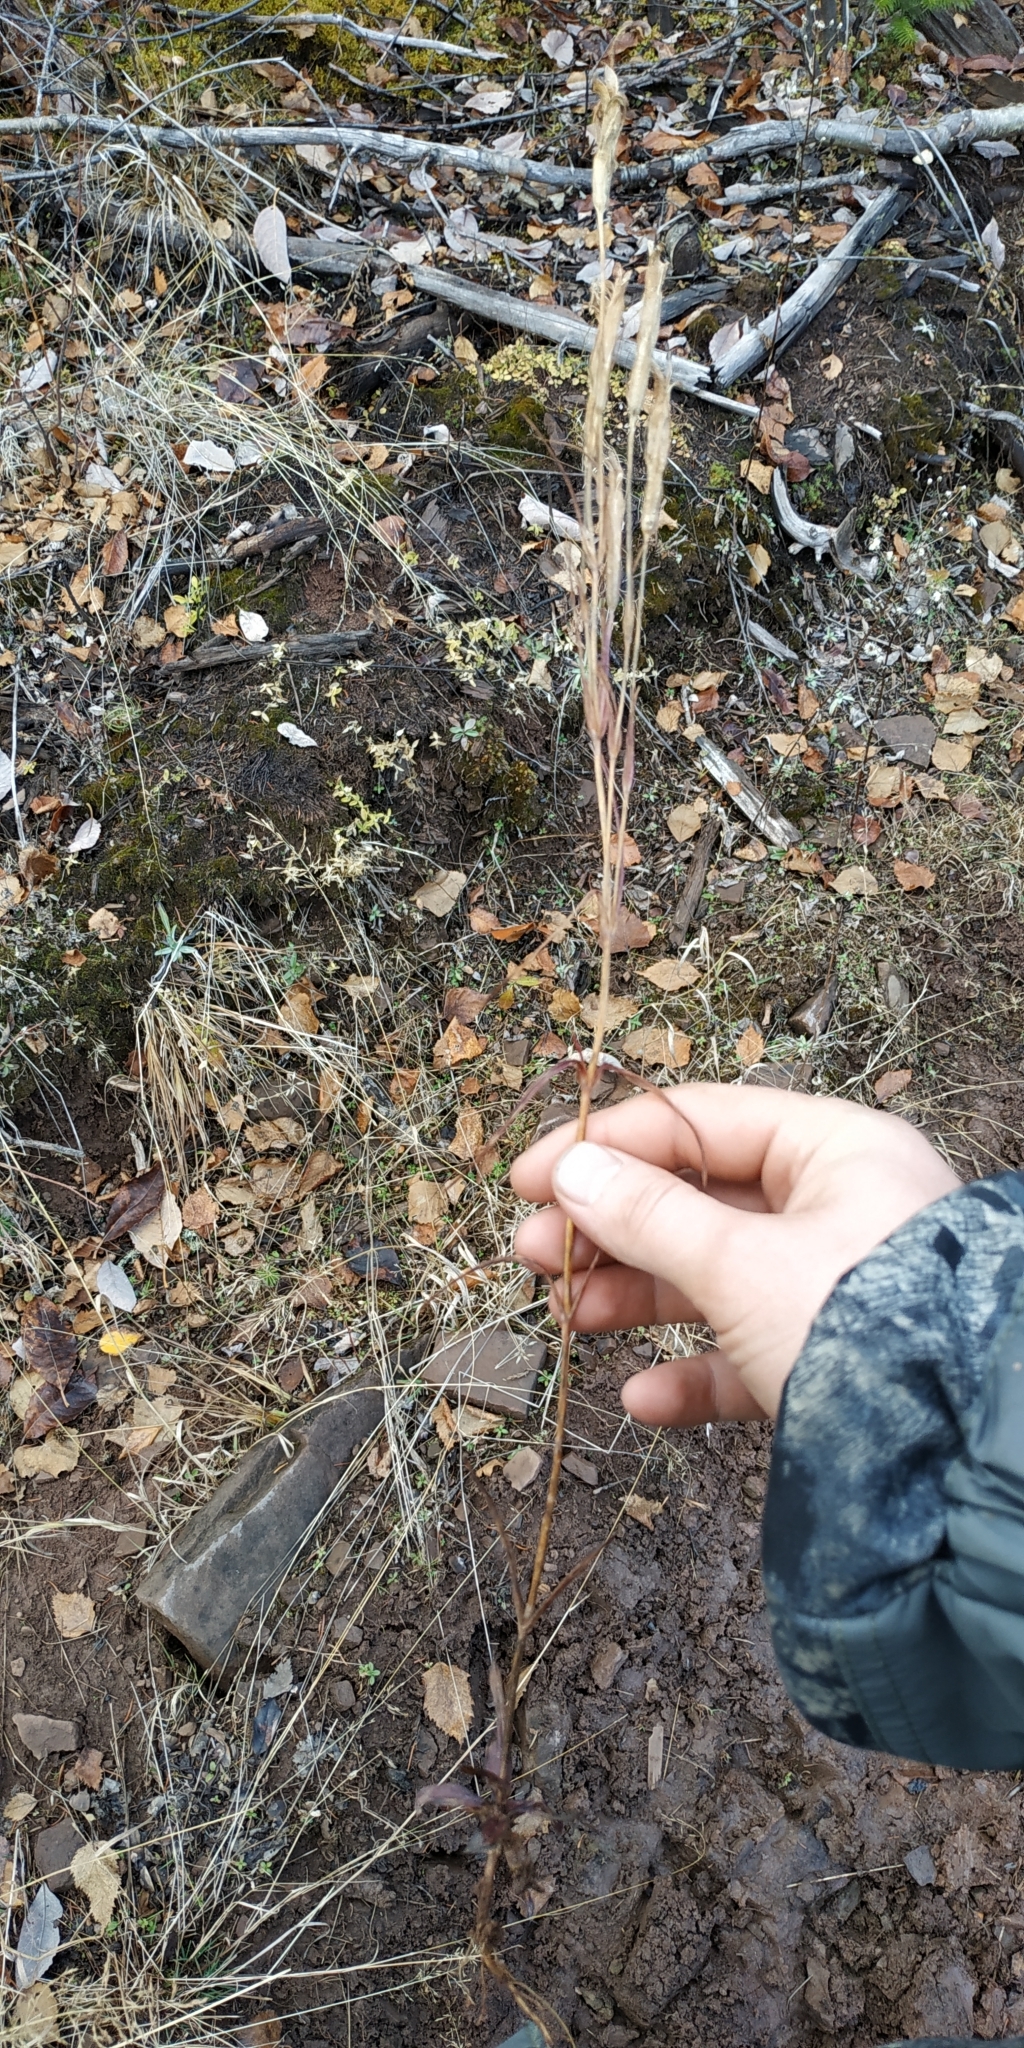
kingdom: Plantae
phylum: Tracheophyta
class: Magnoliopsida
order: Gentianales
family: Gentianaceae
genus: Gentianopsis
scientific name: Gentianopsis barbata
